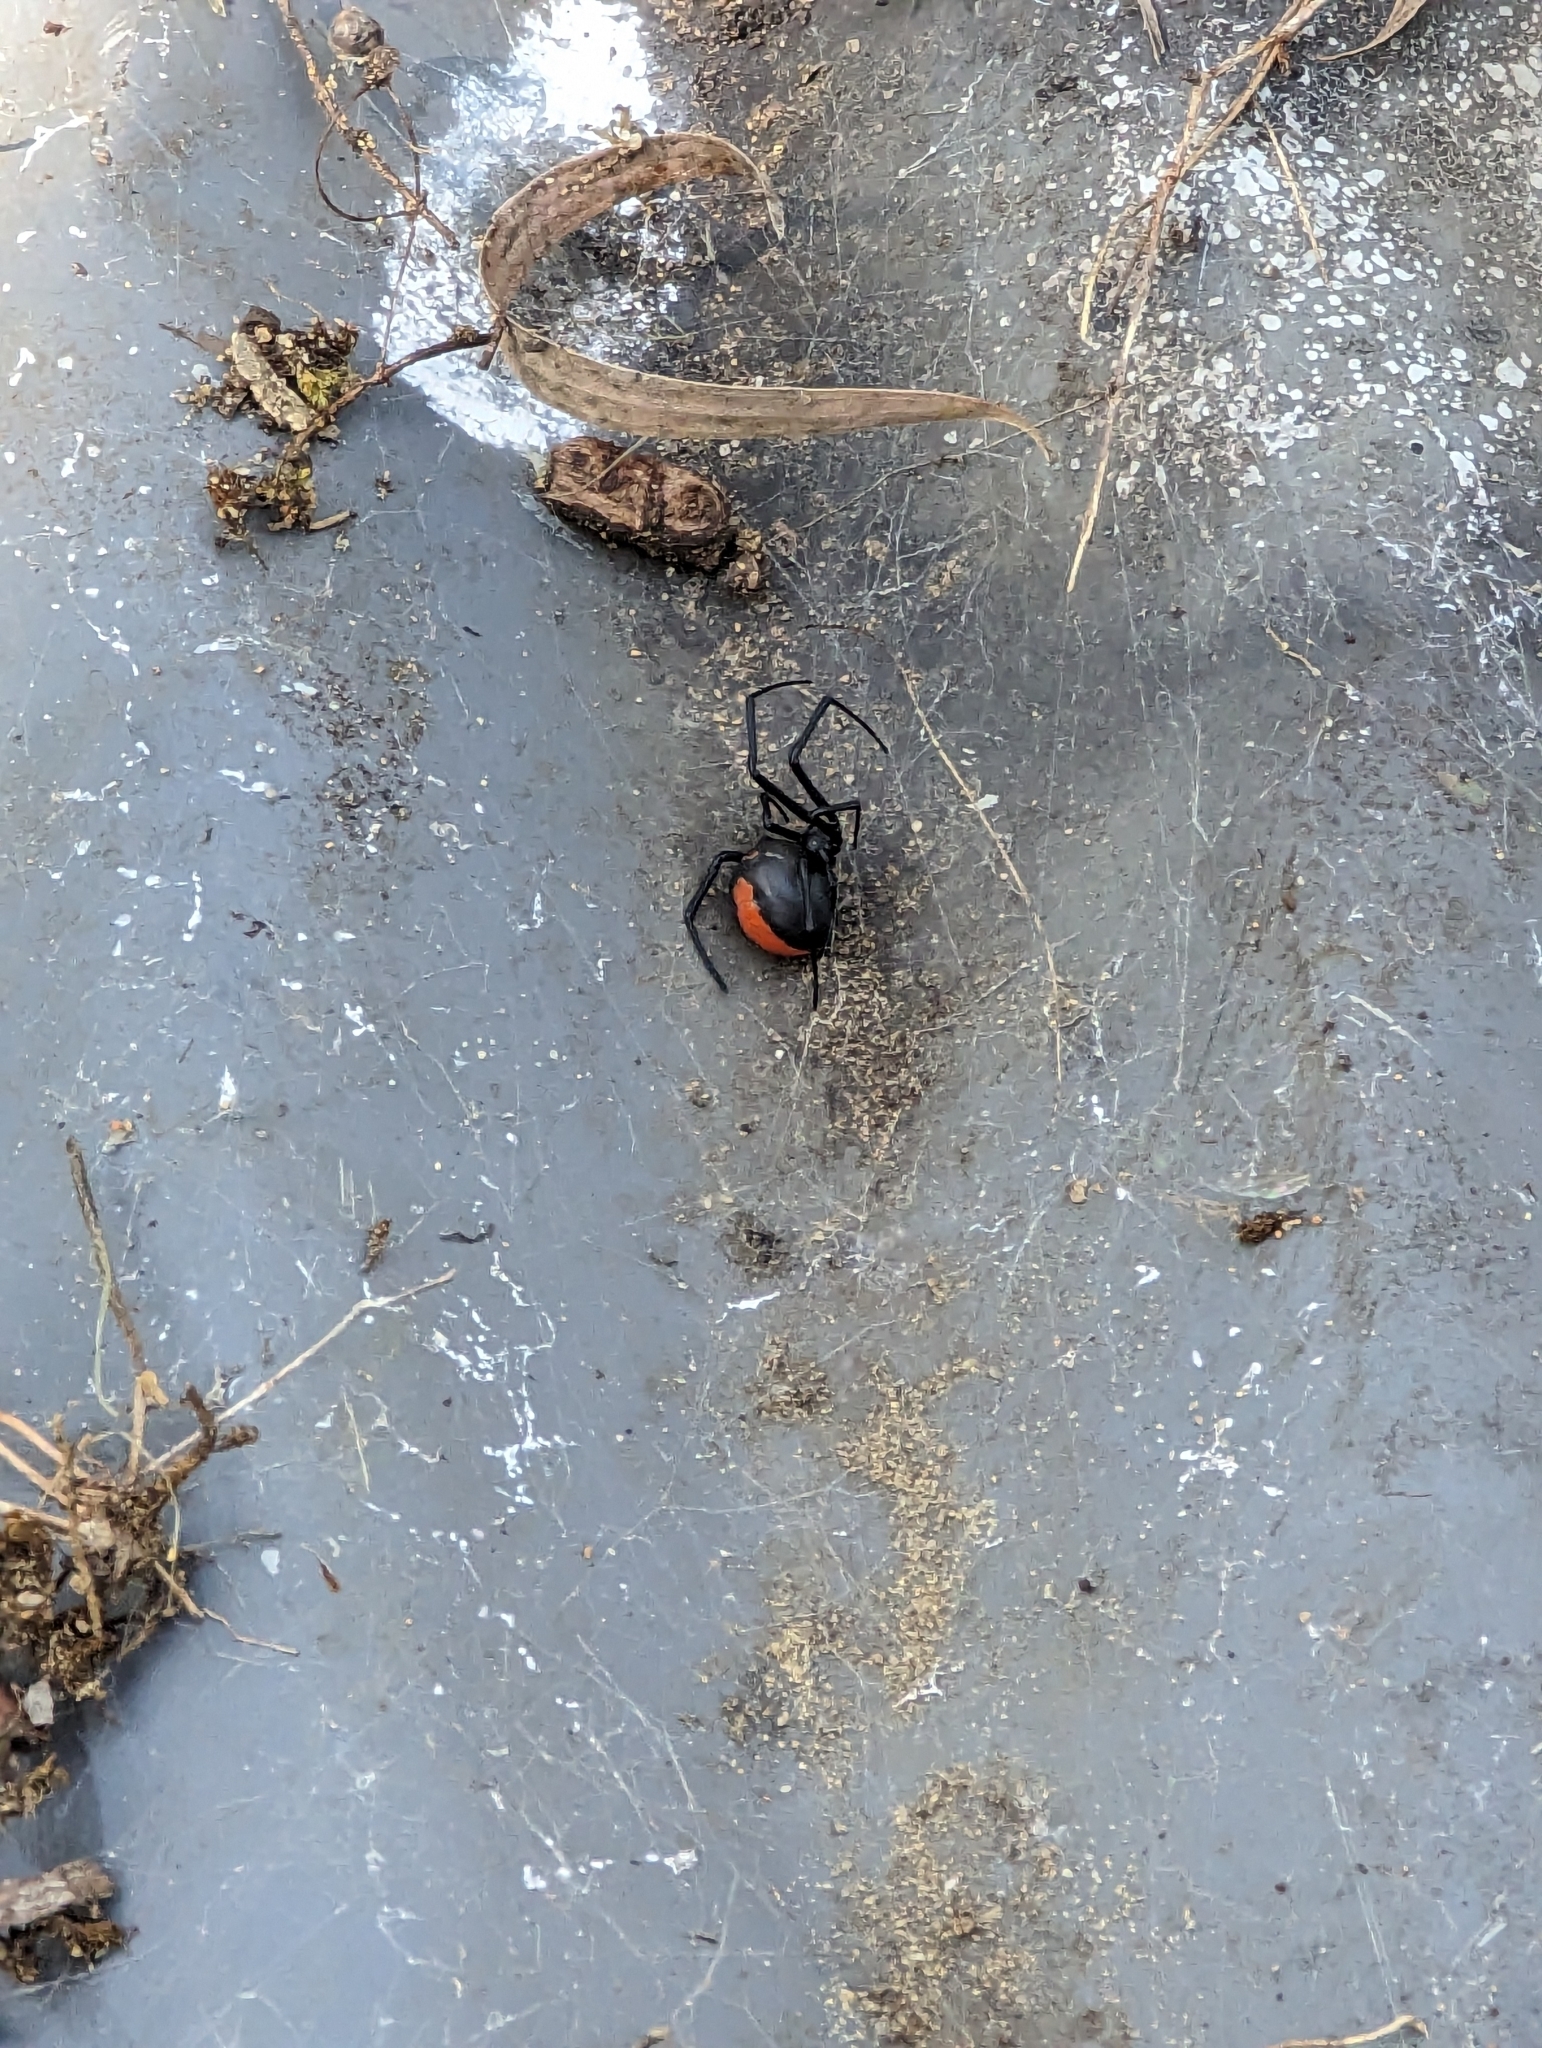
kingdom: Animalia
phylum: Arthropoda
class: Arachnida
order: Araneae
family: Theridiidae
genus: Latrodectus
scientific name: Latrodectus hasselti
